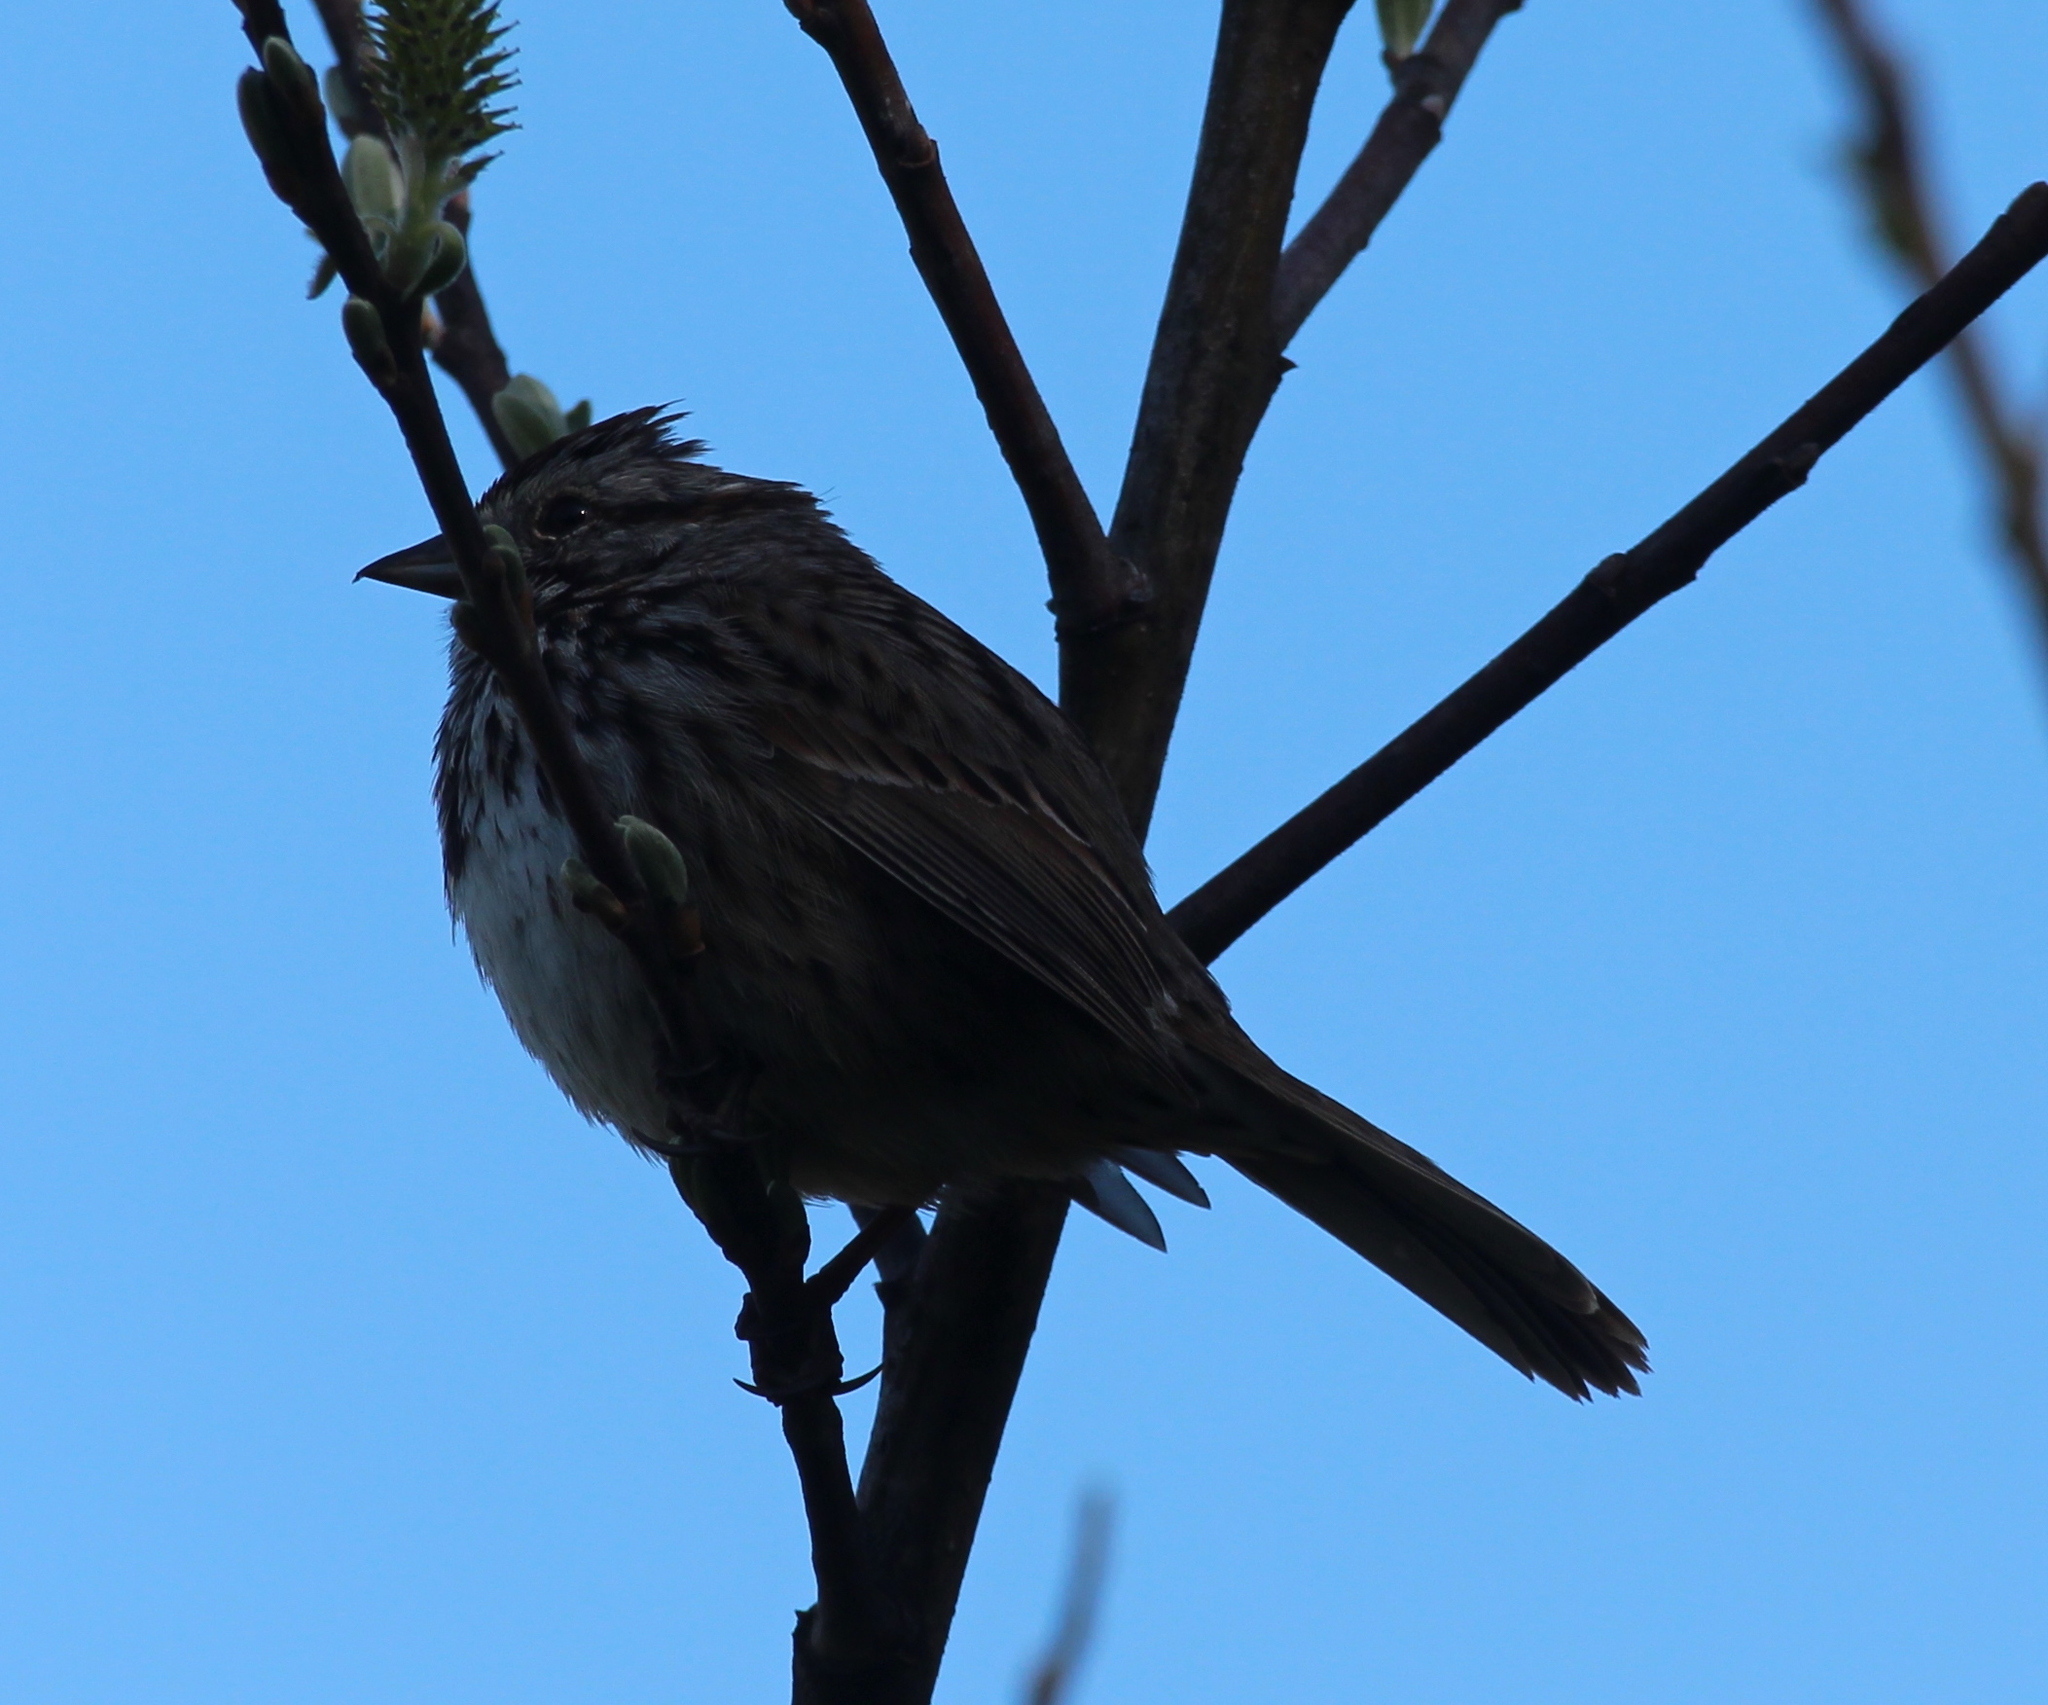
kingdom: Animalia
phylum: Chordata
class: Aves
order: Passeriformes
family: Passerellidae
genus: Melospiza
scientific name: Melospiza melodia
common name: Song sparrow
